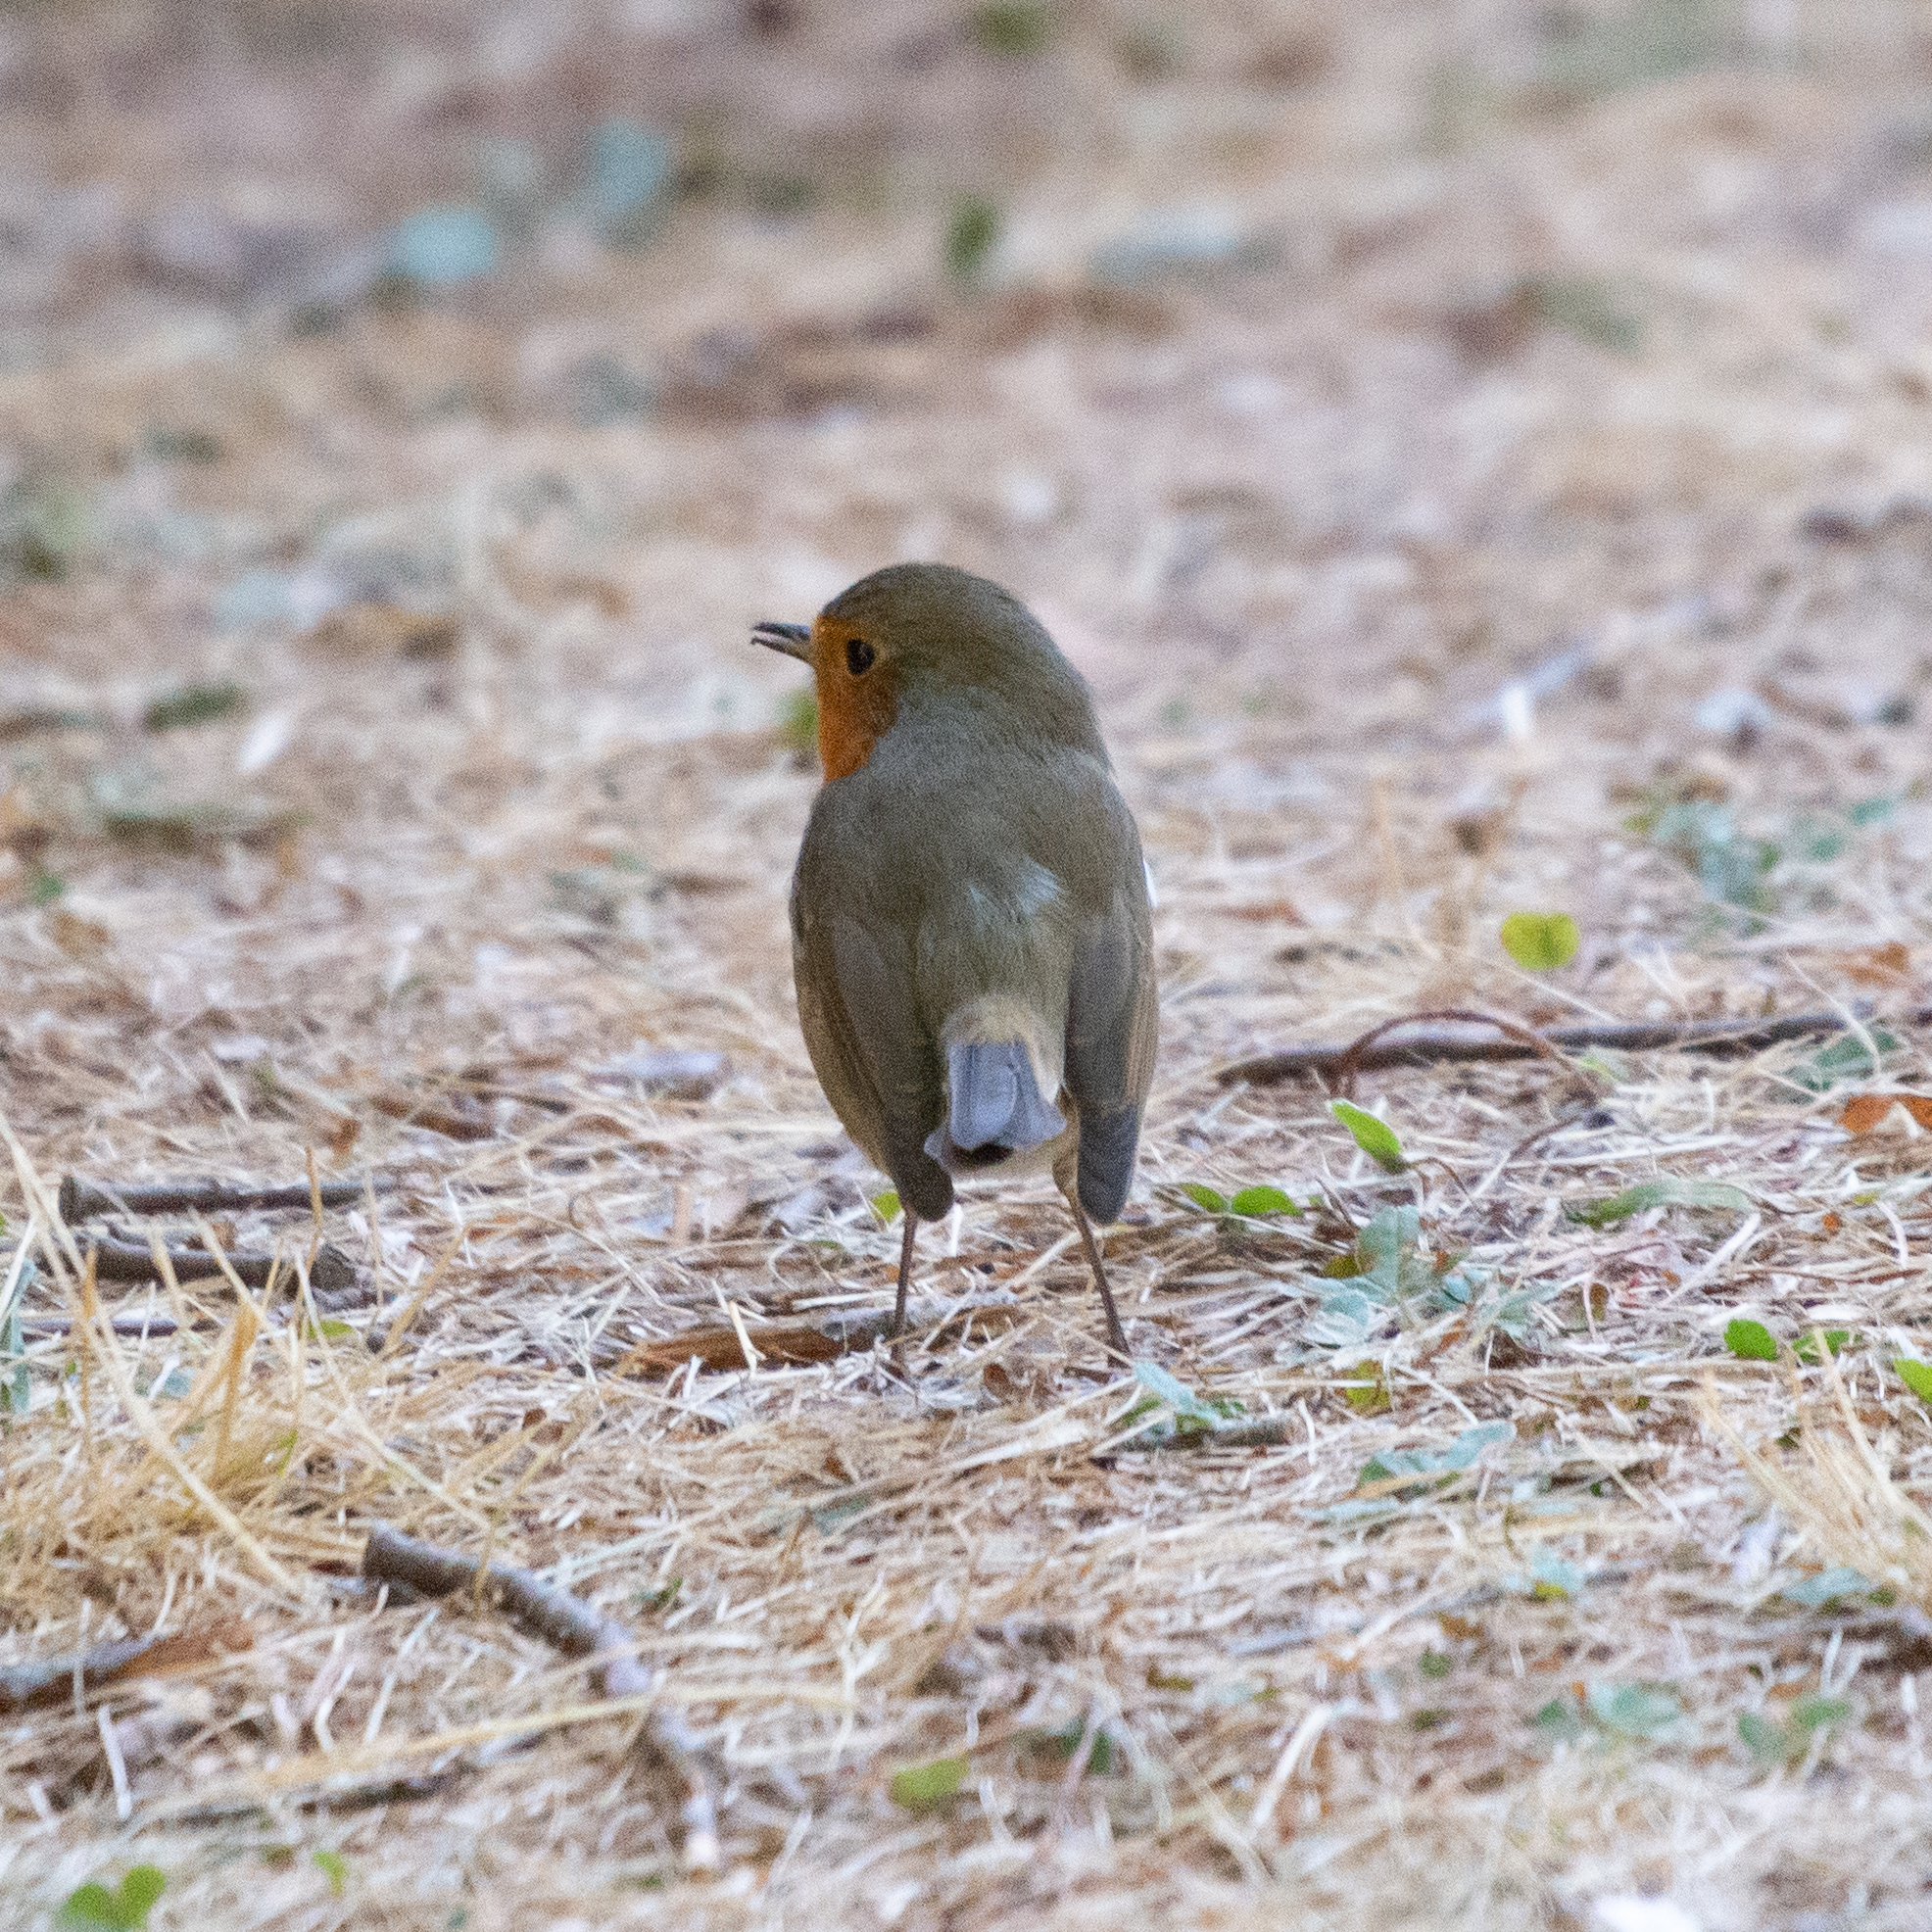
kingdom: Animalia
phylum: Chordata
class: Aves
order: Passeriformes
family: Muscicapidae
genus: Erithacus
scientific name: Erithacus rubecula
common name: European robin
